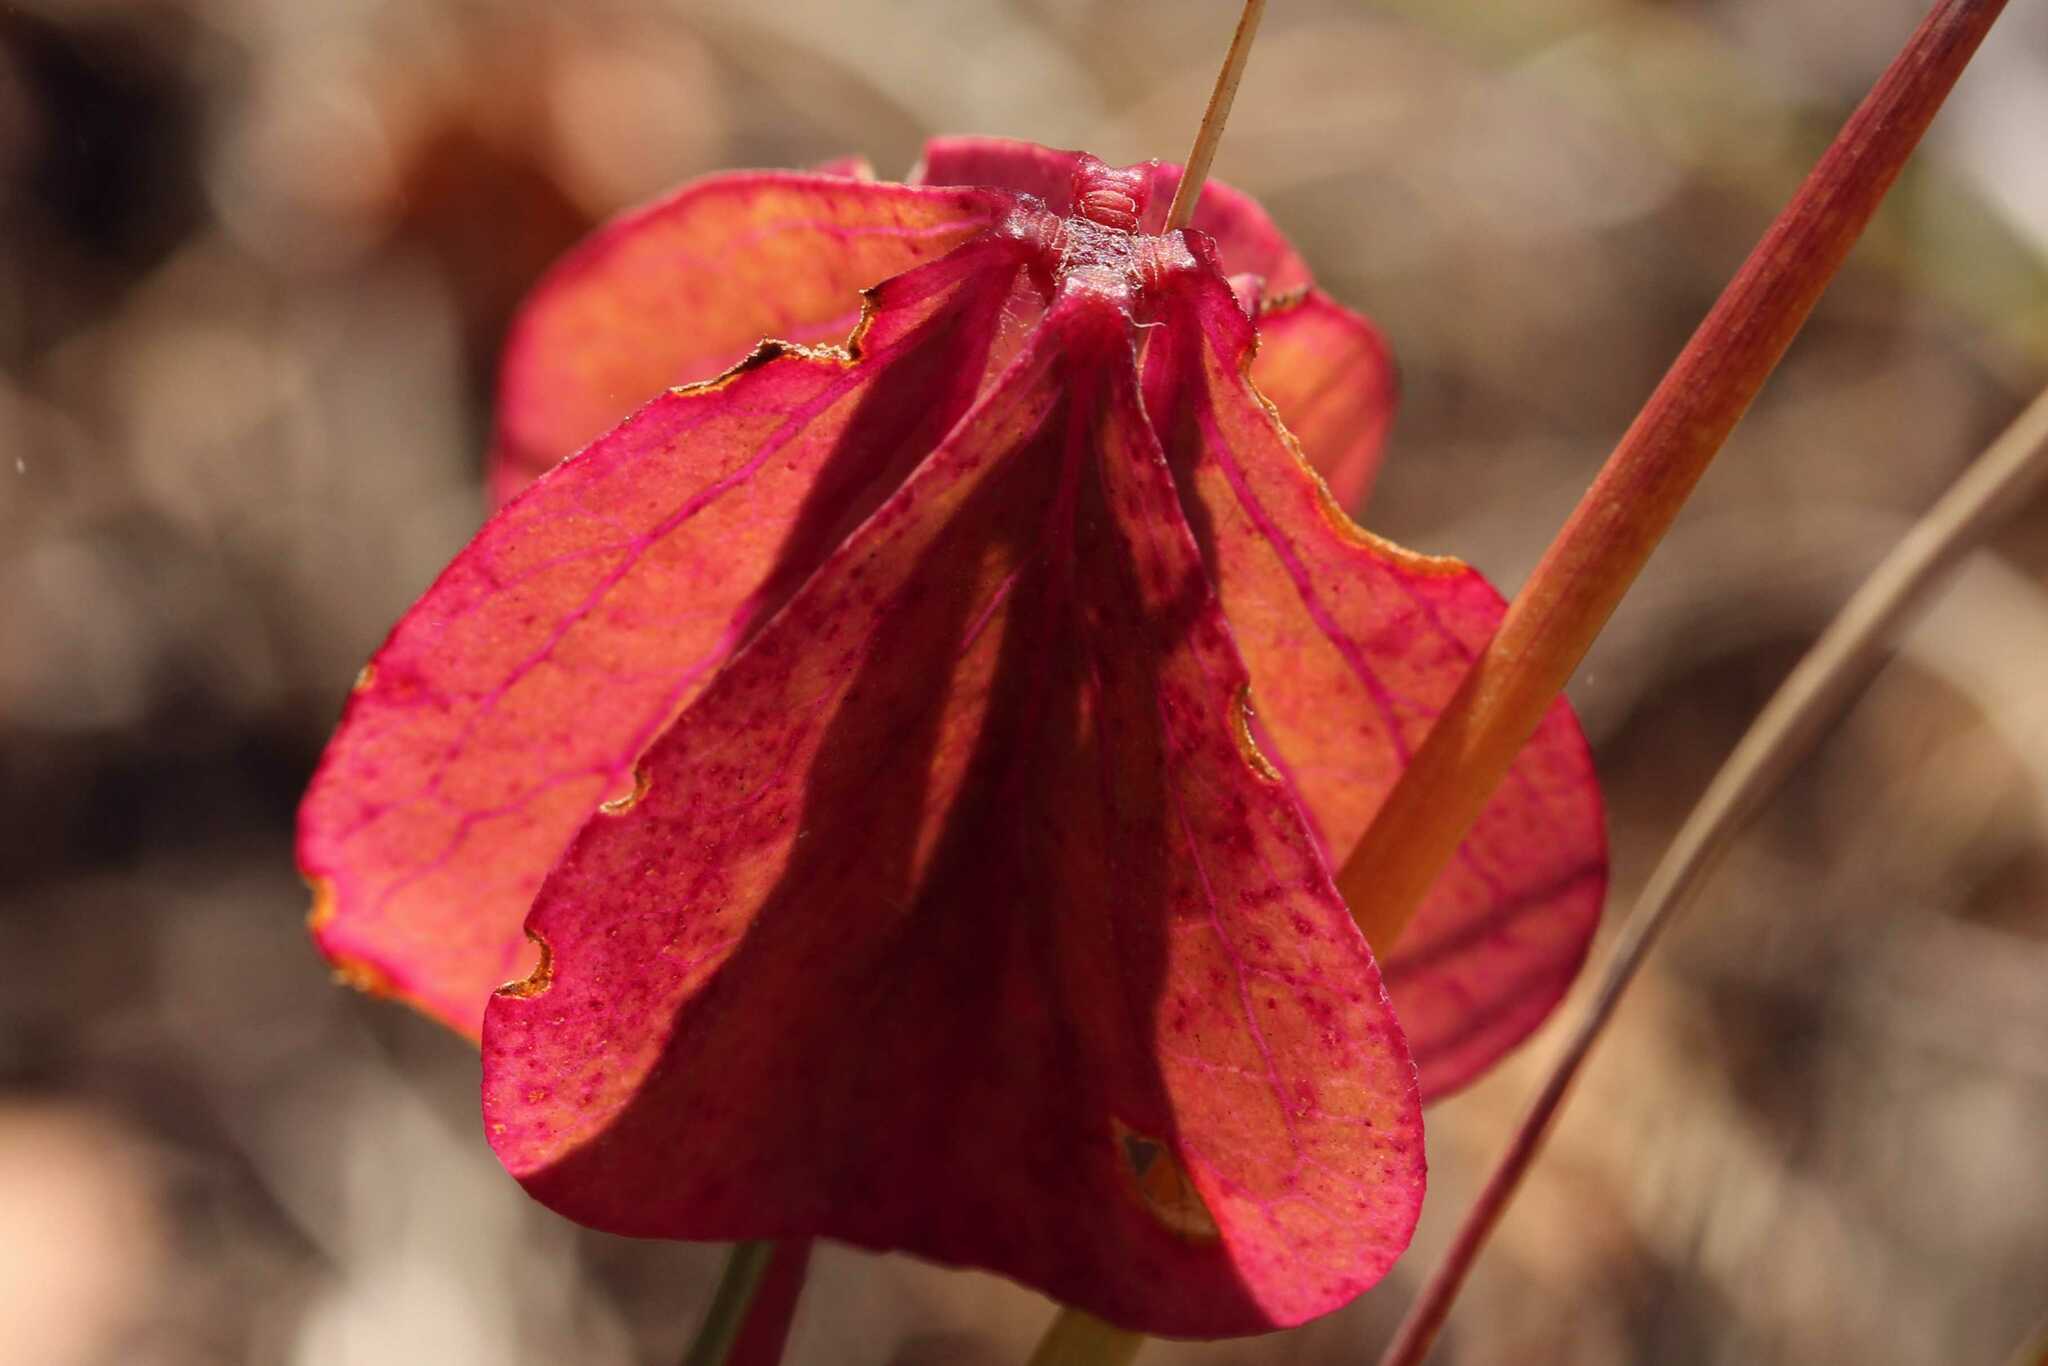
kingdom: Plantae
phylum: Tracheophyta
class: Magnoliopsida
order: Oxalidales
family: Oxalidaceae
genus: Oxalis
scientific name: Oxalis tetraphylla
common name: Four-leaved pink-sorrel
